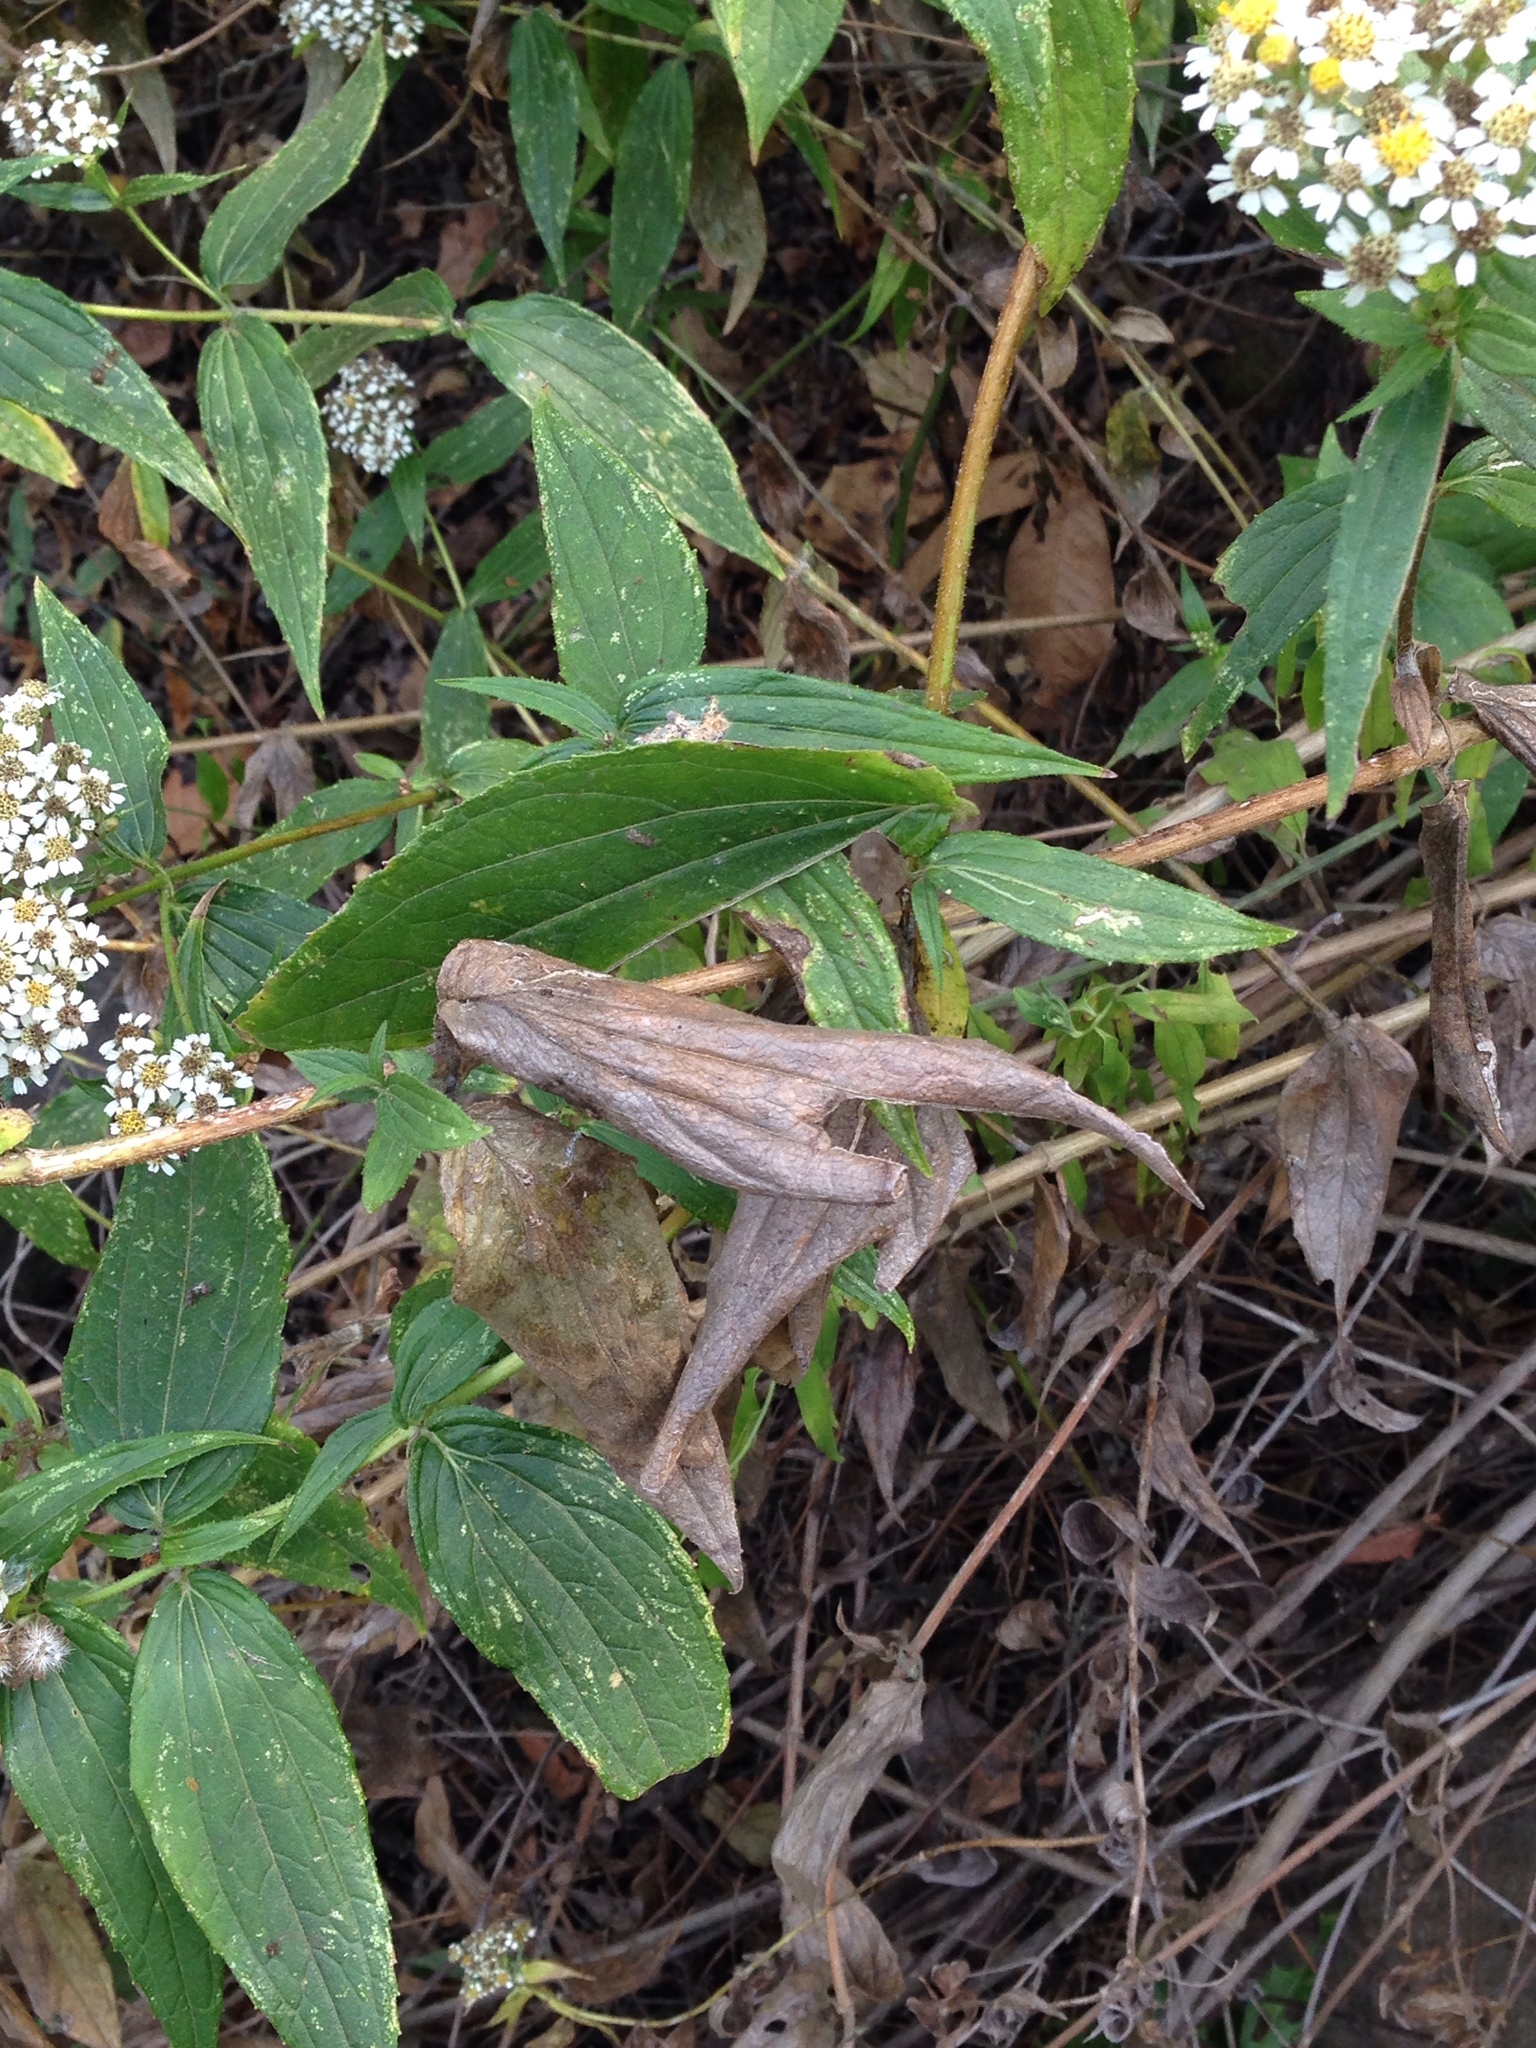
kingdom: Plantae
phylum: Tracheophyta
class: Magnoliopsida
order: Asterales
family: Asteraceae
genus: Alloispermum
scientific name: Alloispermum integrifolium
